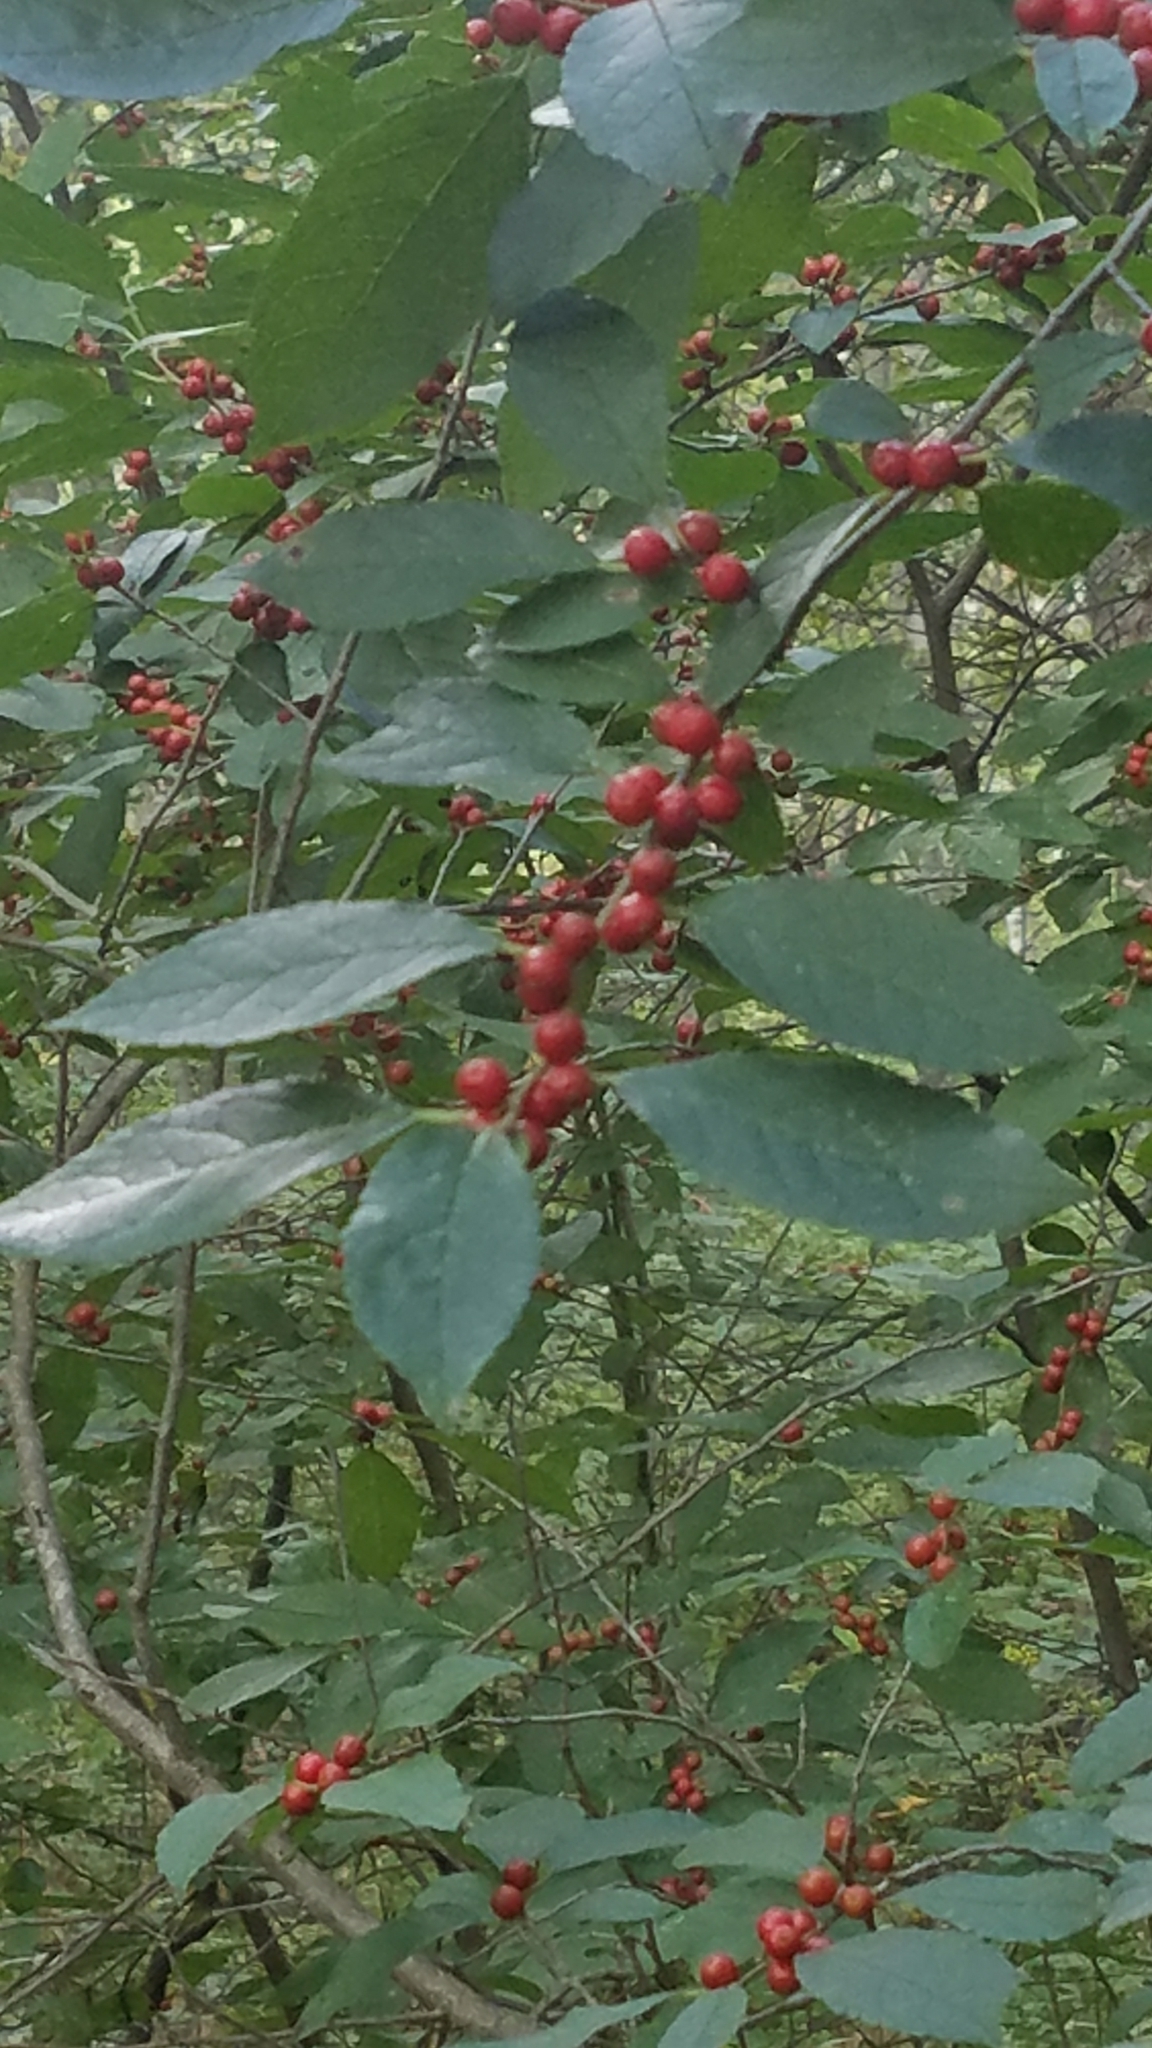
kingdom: Plantae
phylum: Tracheophyta
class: Magnoliopsida
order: Aquifoliales
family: Aquifoliaceae
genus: Ilex
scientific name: Ilex verticillata
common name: Virginia winterberry
